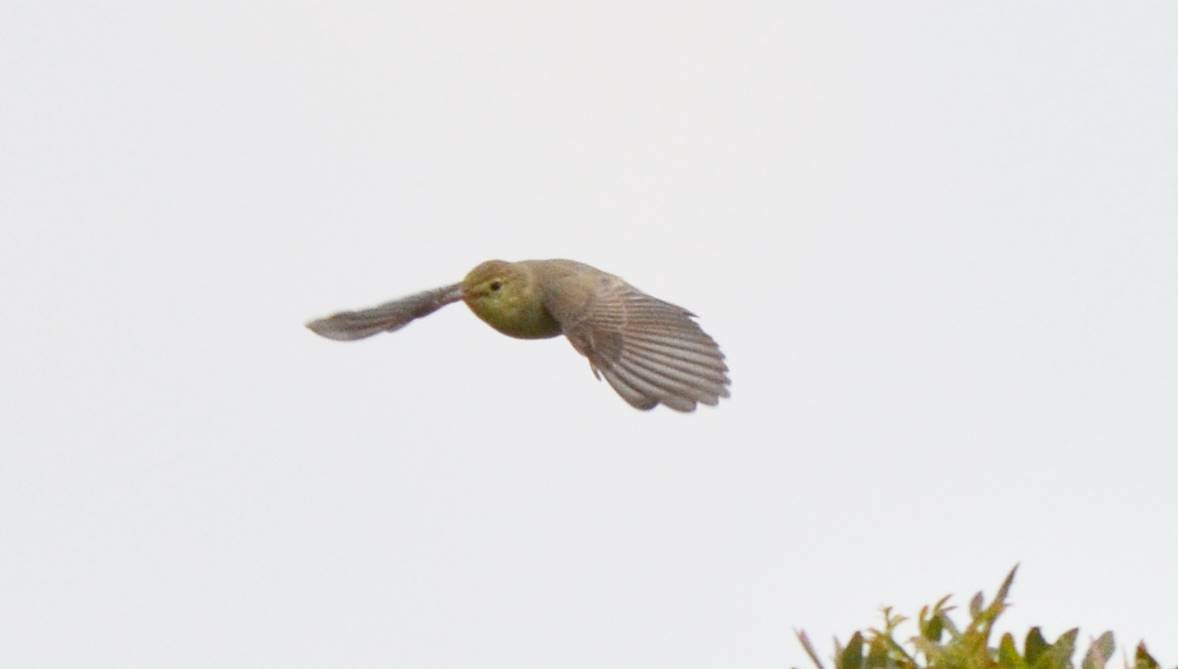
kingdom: Animalia
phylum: Chordata
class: Aves
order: Passeriformes
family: Acrocephalidae
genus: Hippolais
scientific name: Hippolais polyglotta
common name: Melodious warbler
